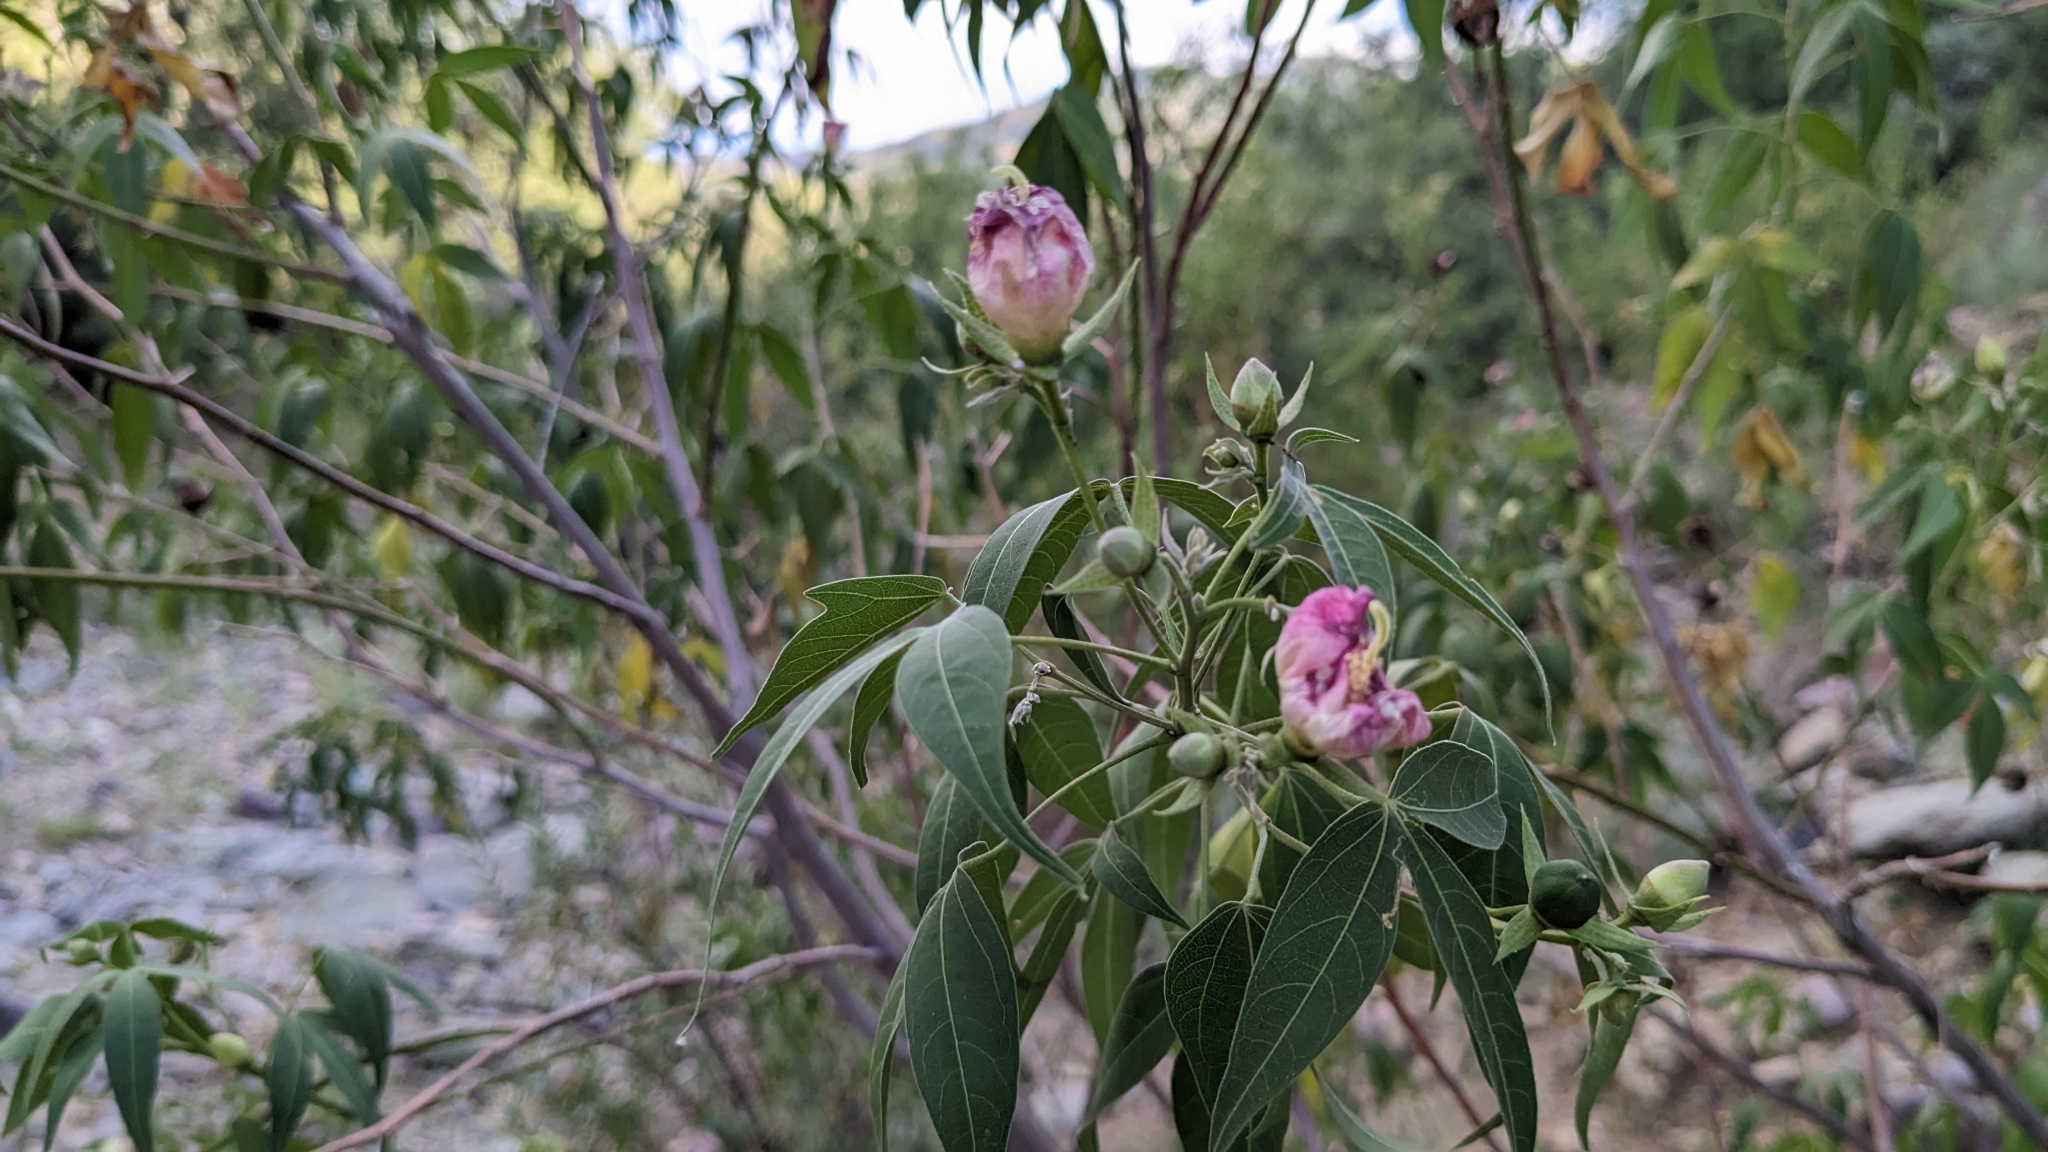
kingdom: Plantae
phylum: Tracheophyta
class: Magnoliopsida
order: Malvales
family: Malvaceae
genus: Gossypium
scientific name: Gossypium thurberi
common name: Desert cotton
